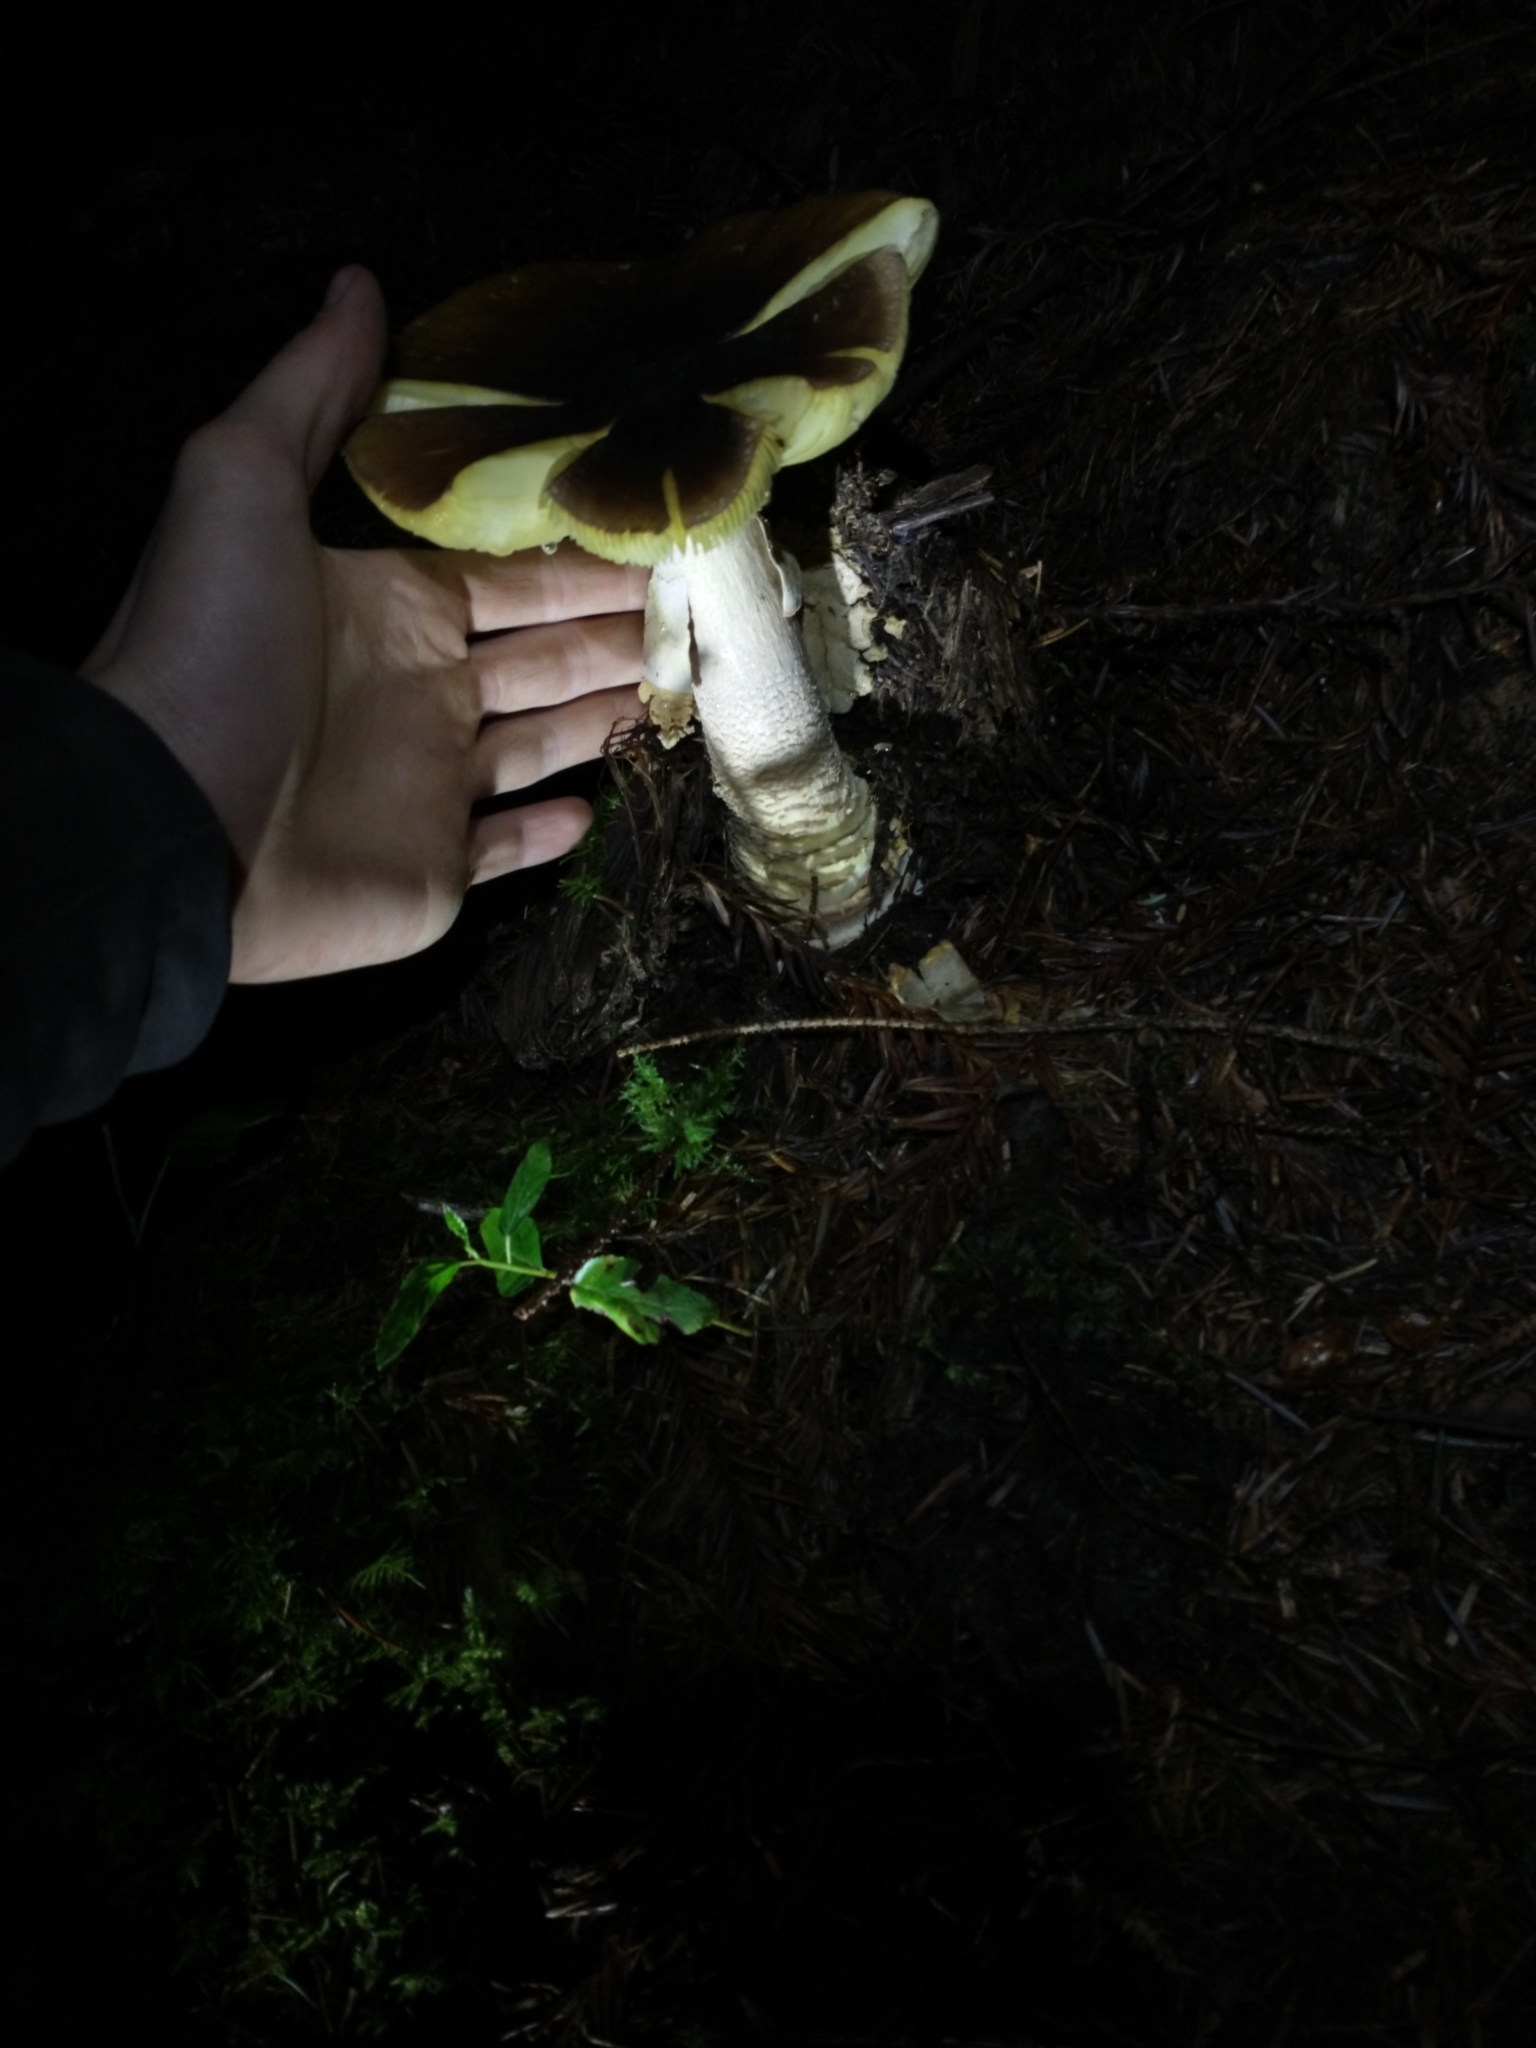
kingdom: Fungi
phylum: Basidiomycota
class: Agaricomycetes
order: Agaricales
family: Amanitaceae
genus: Amanita
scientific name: Amanita augusta
